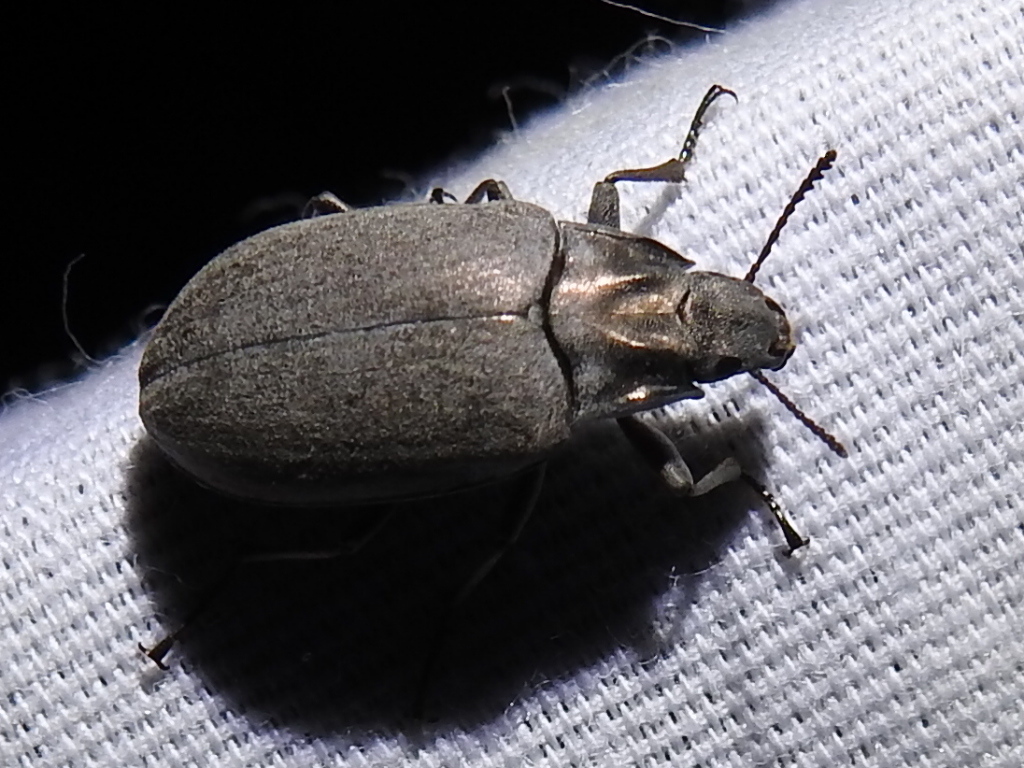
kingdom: Animalia
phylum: Arthropoda
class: Insecta
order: Coleoptera
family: Tenebrionidae
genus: Bothrotes
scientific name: Bothrotes canaliculatus
